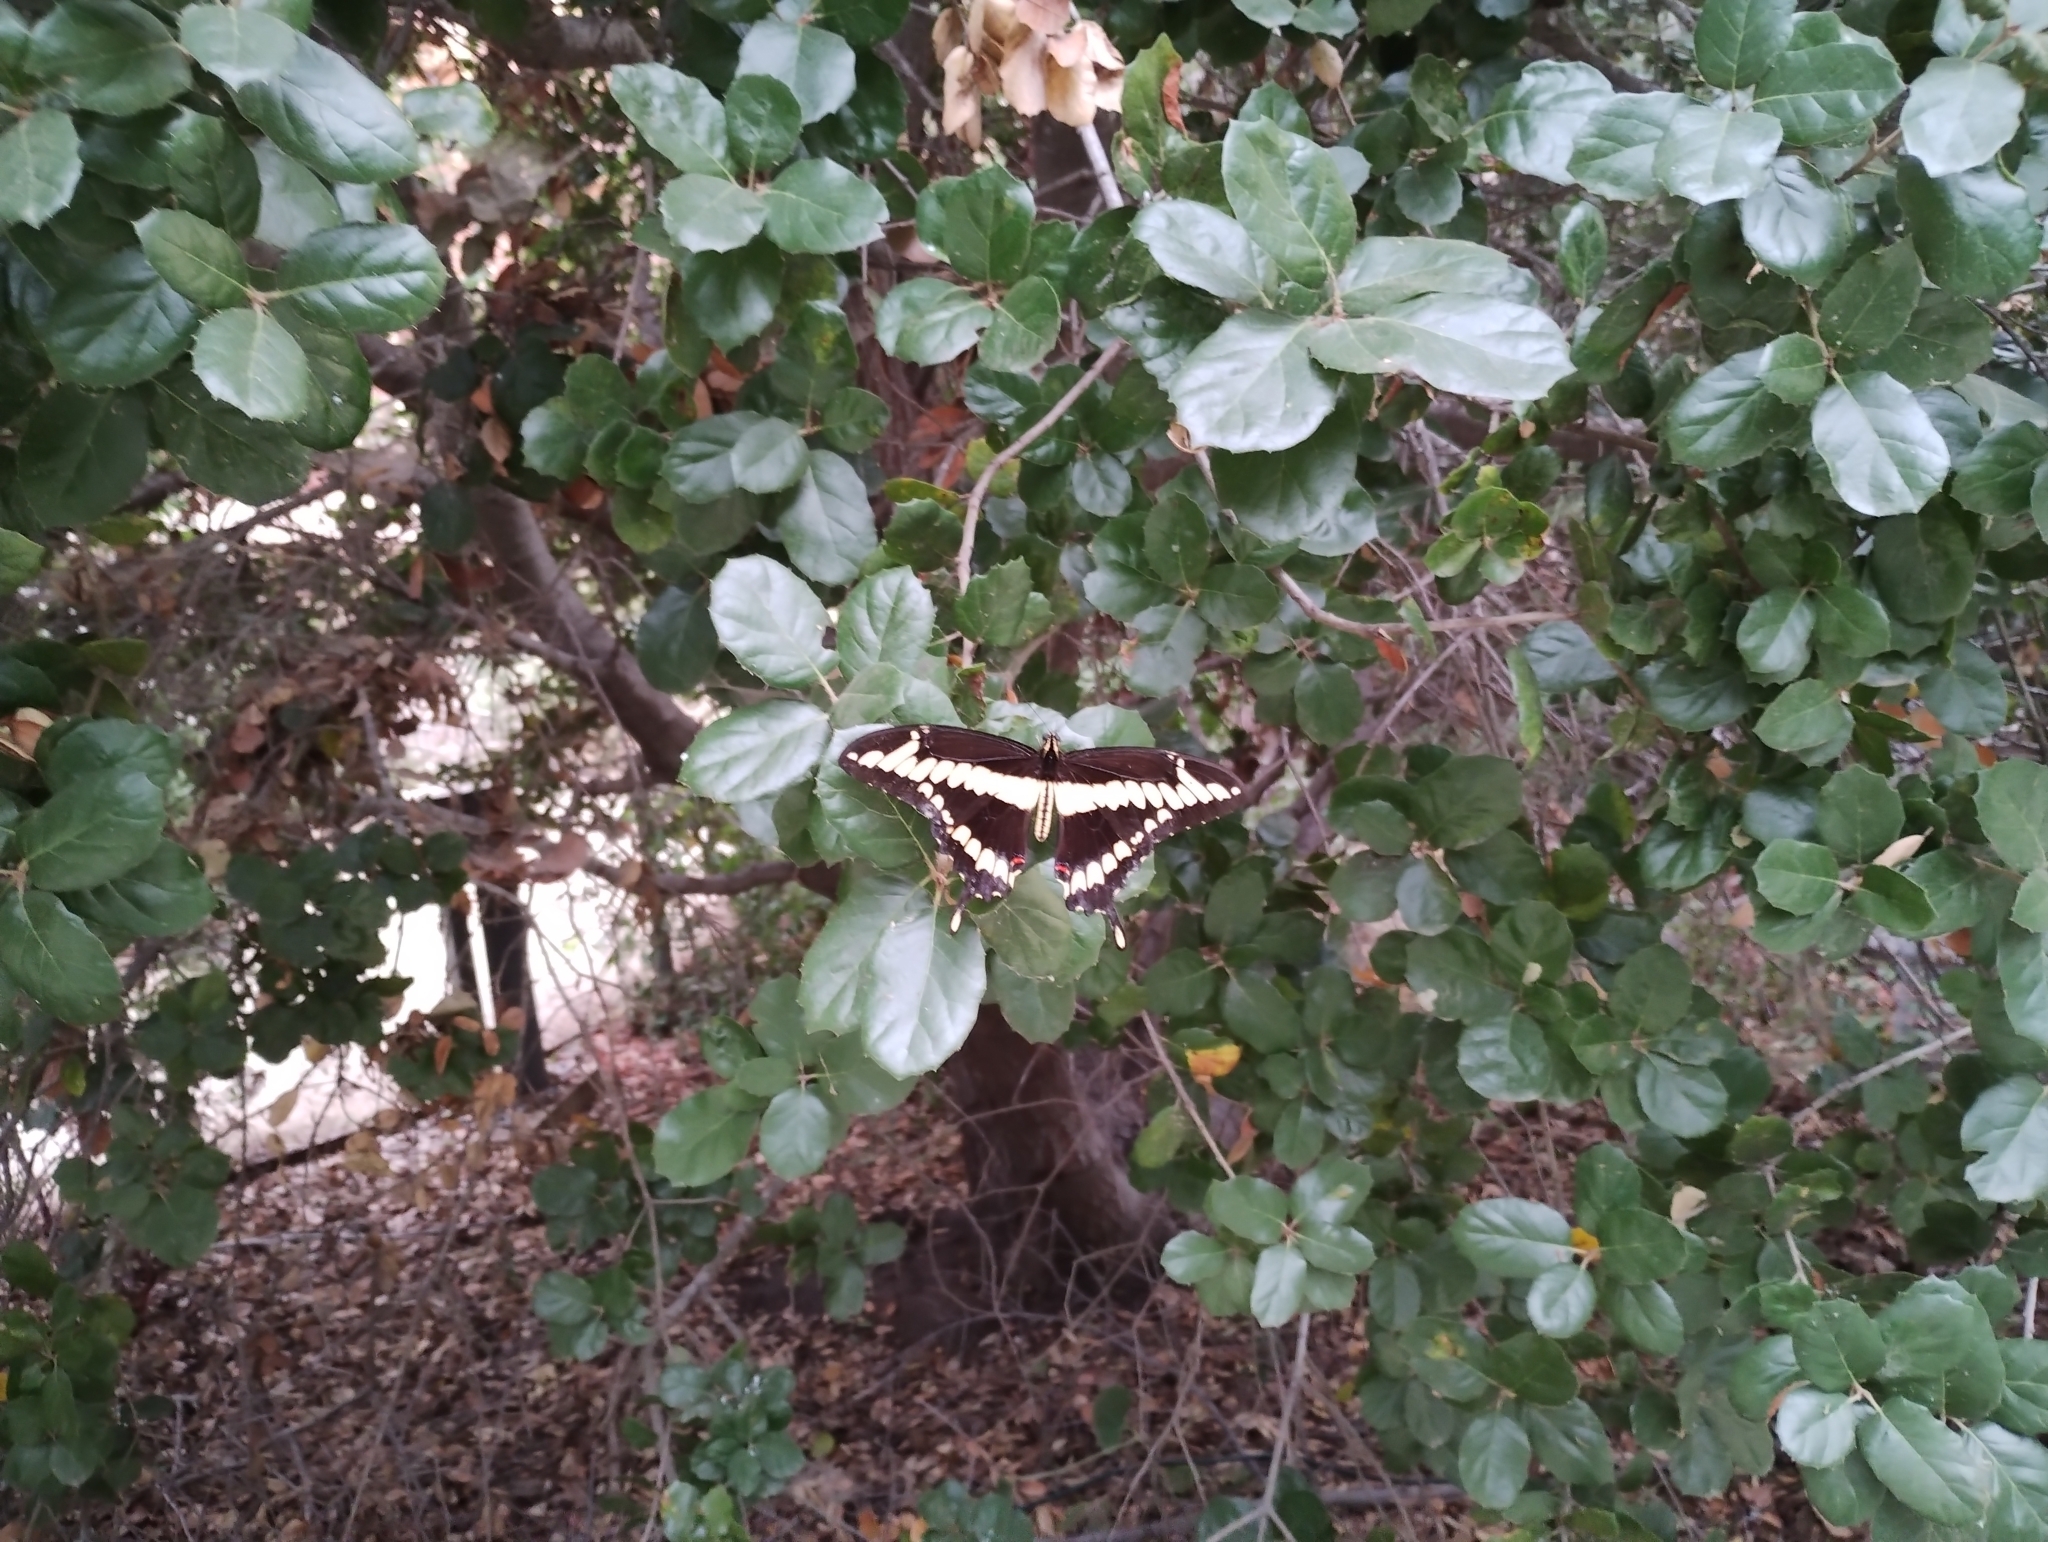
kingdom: Animalia
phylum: Arthropoda
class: Insecta
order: Lepidoptera
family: Papilionidae
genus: Papilio
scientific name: Papilio rumiko
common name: Western giant swallowtail
